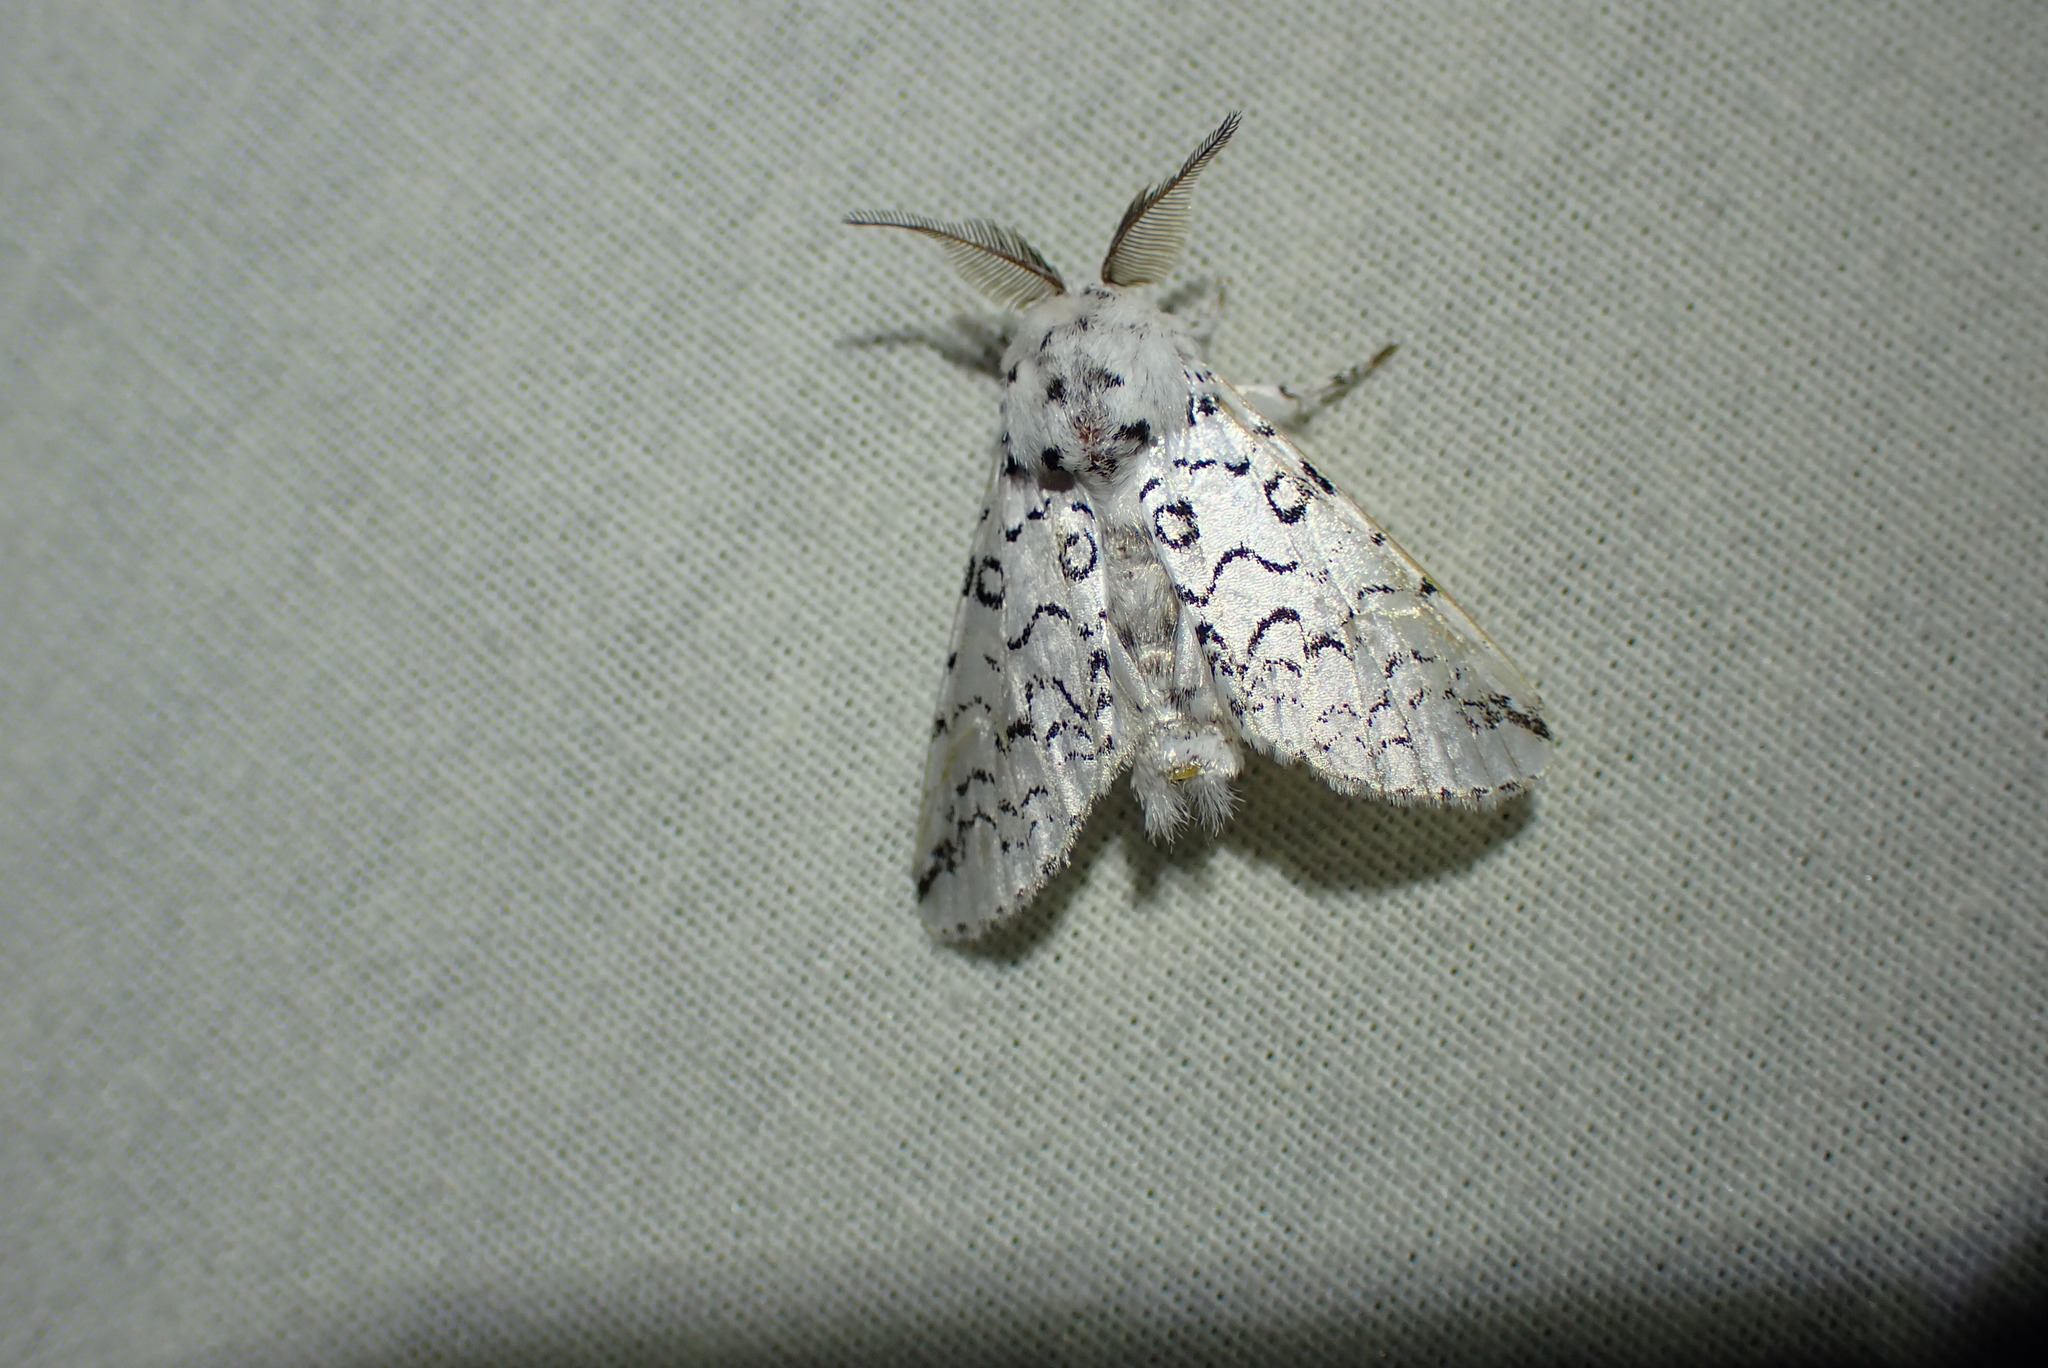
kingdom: Animalia
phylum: Arthropoda
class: Insecta
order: Lepidoptera
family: Notodontidae
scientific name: Notodontidae
